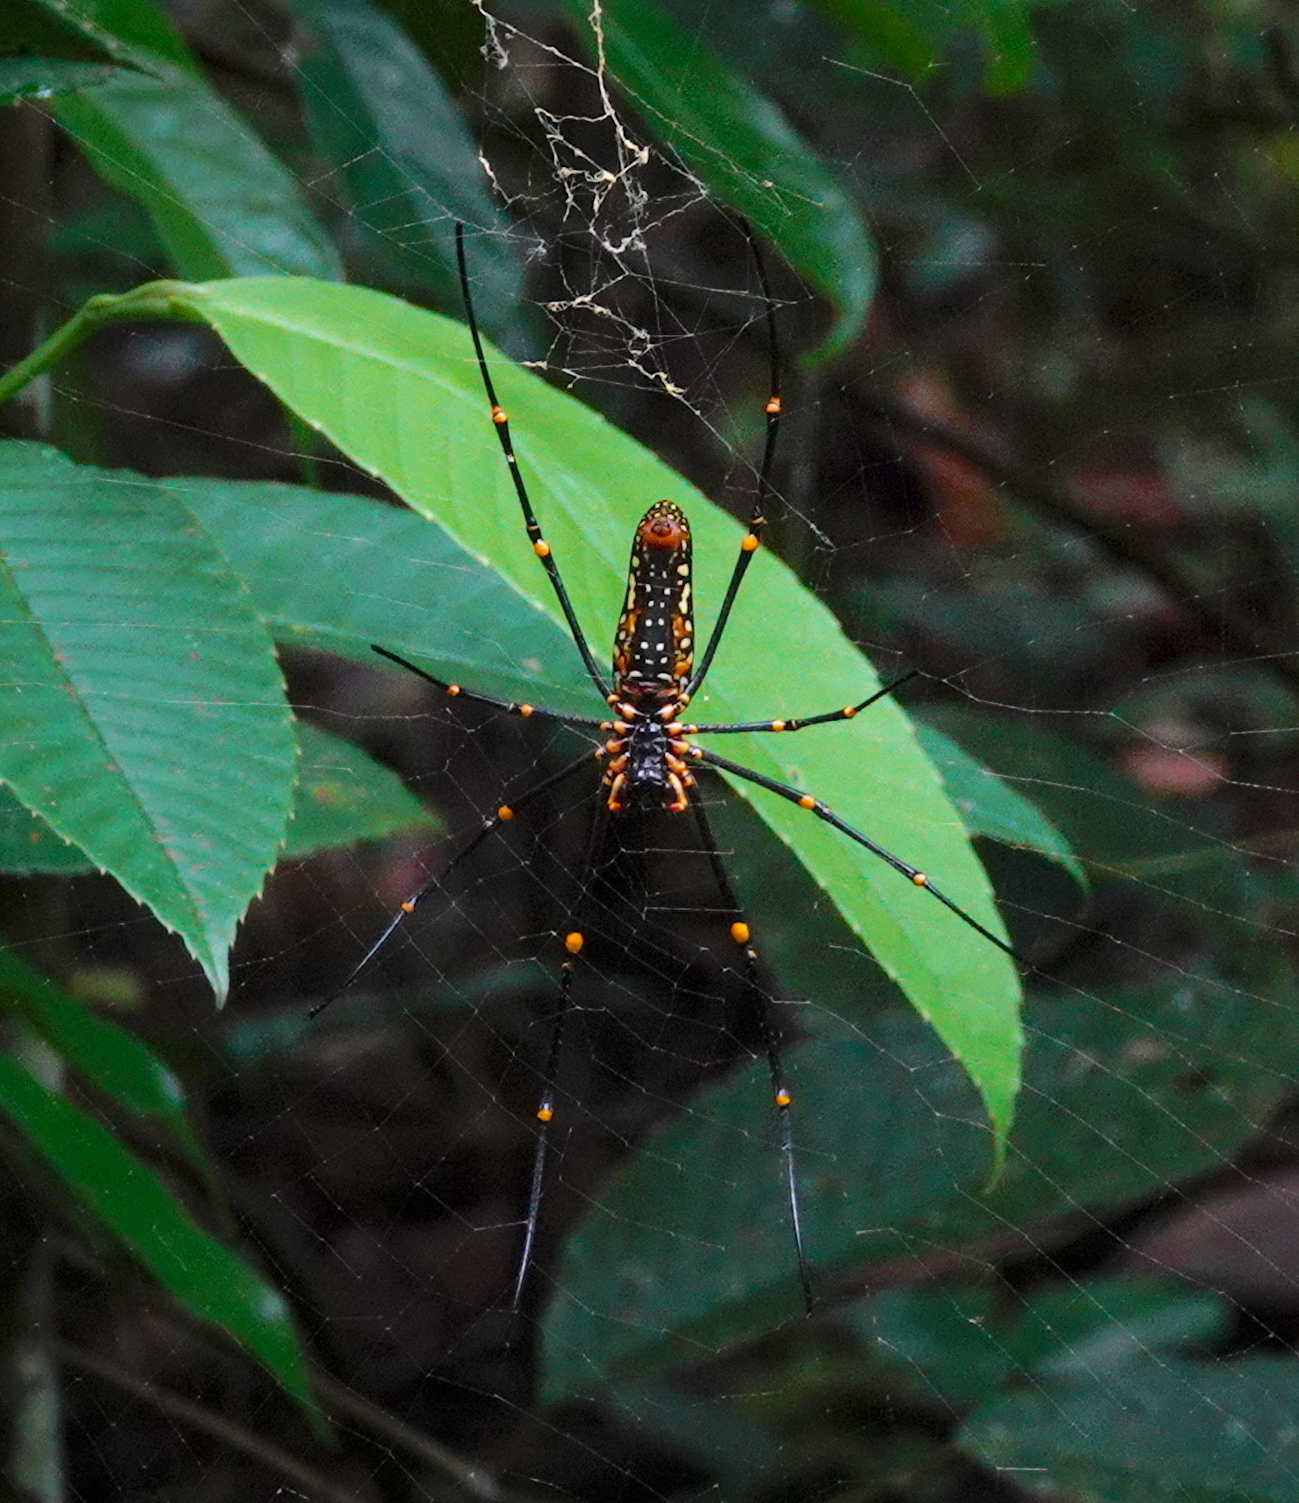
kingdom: Animalia
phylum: Arthropoda
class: Arachnida
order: Araneae
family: Araneidae
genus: Nephila
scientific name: Nephila pilipes
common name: Giant golden orb weaver
